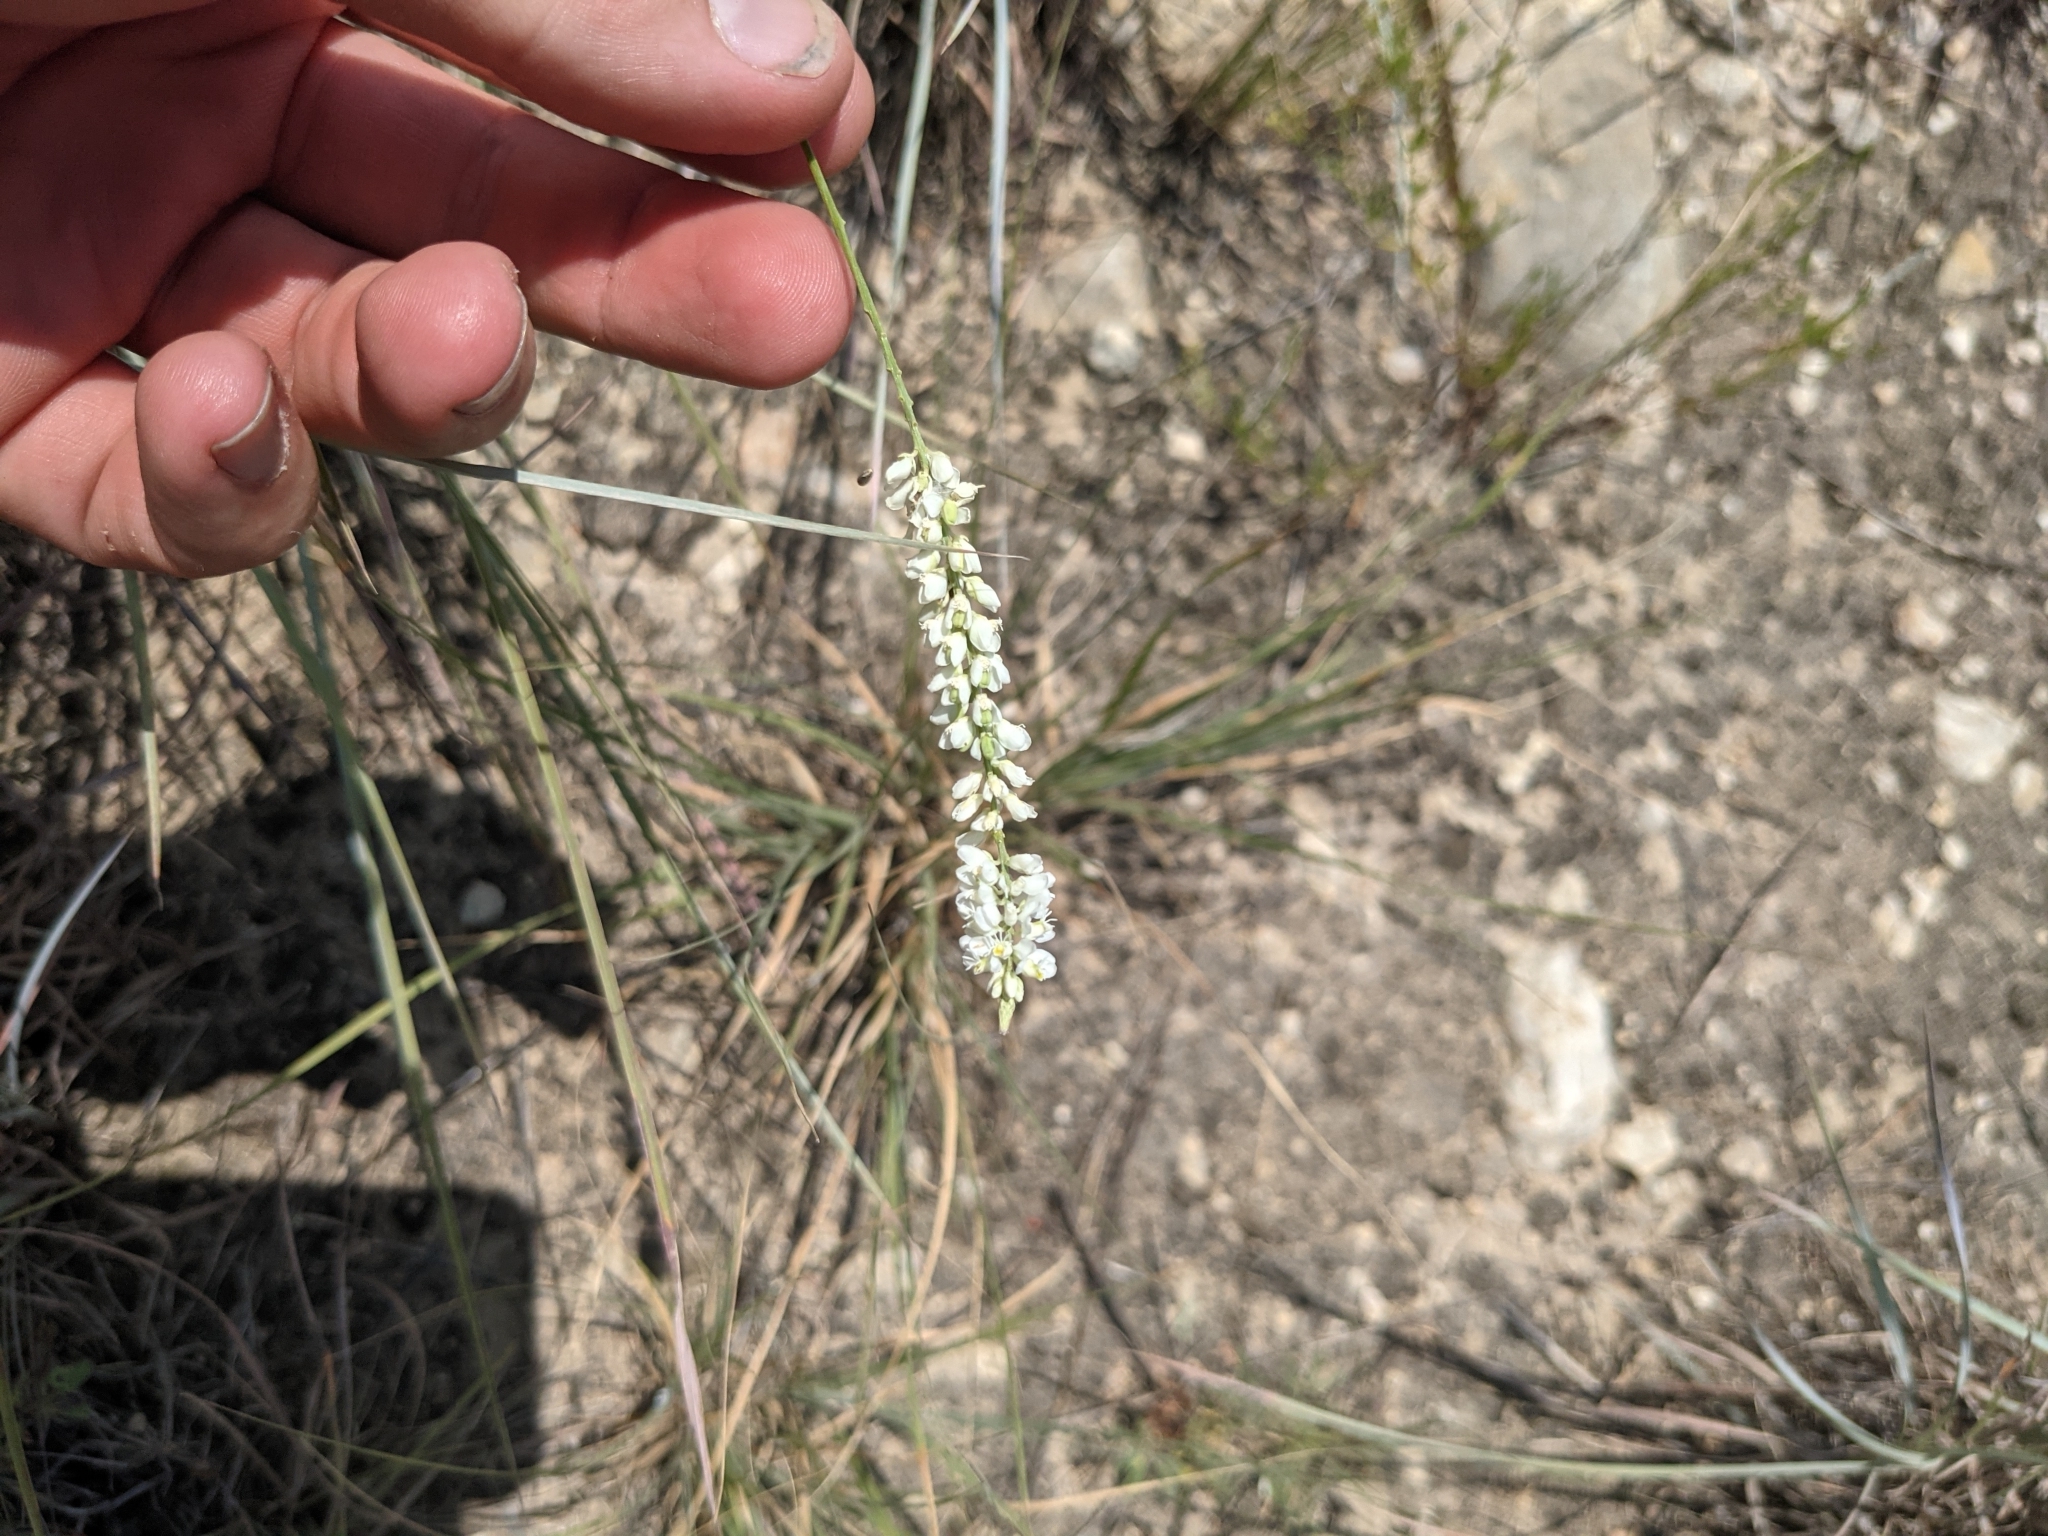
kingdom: Plantae
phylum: Tracheophyta
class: Magnoliopsida
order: Fabales
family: Polygalaceae
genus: Polygala
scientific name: Polygala alba
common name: White milkwort
